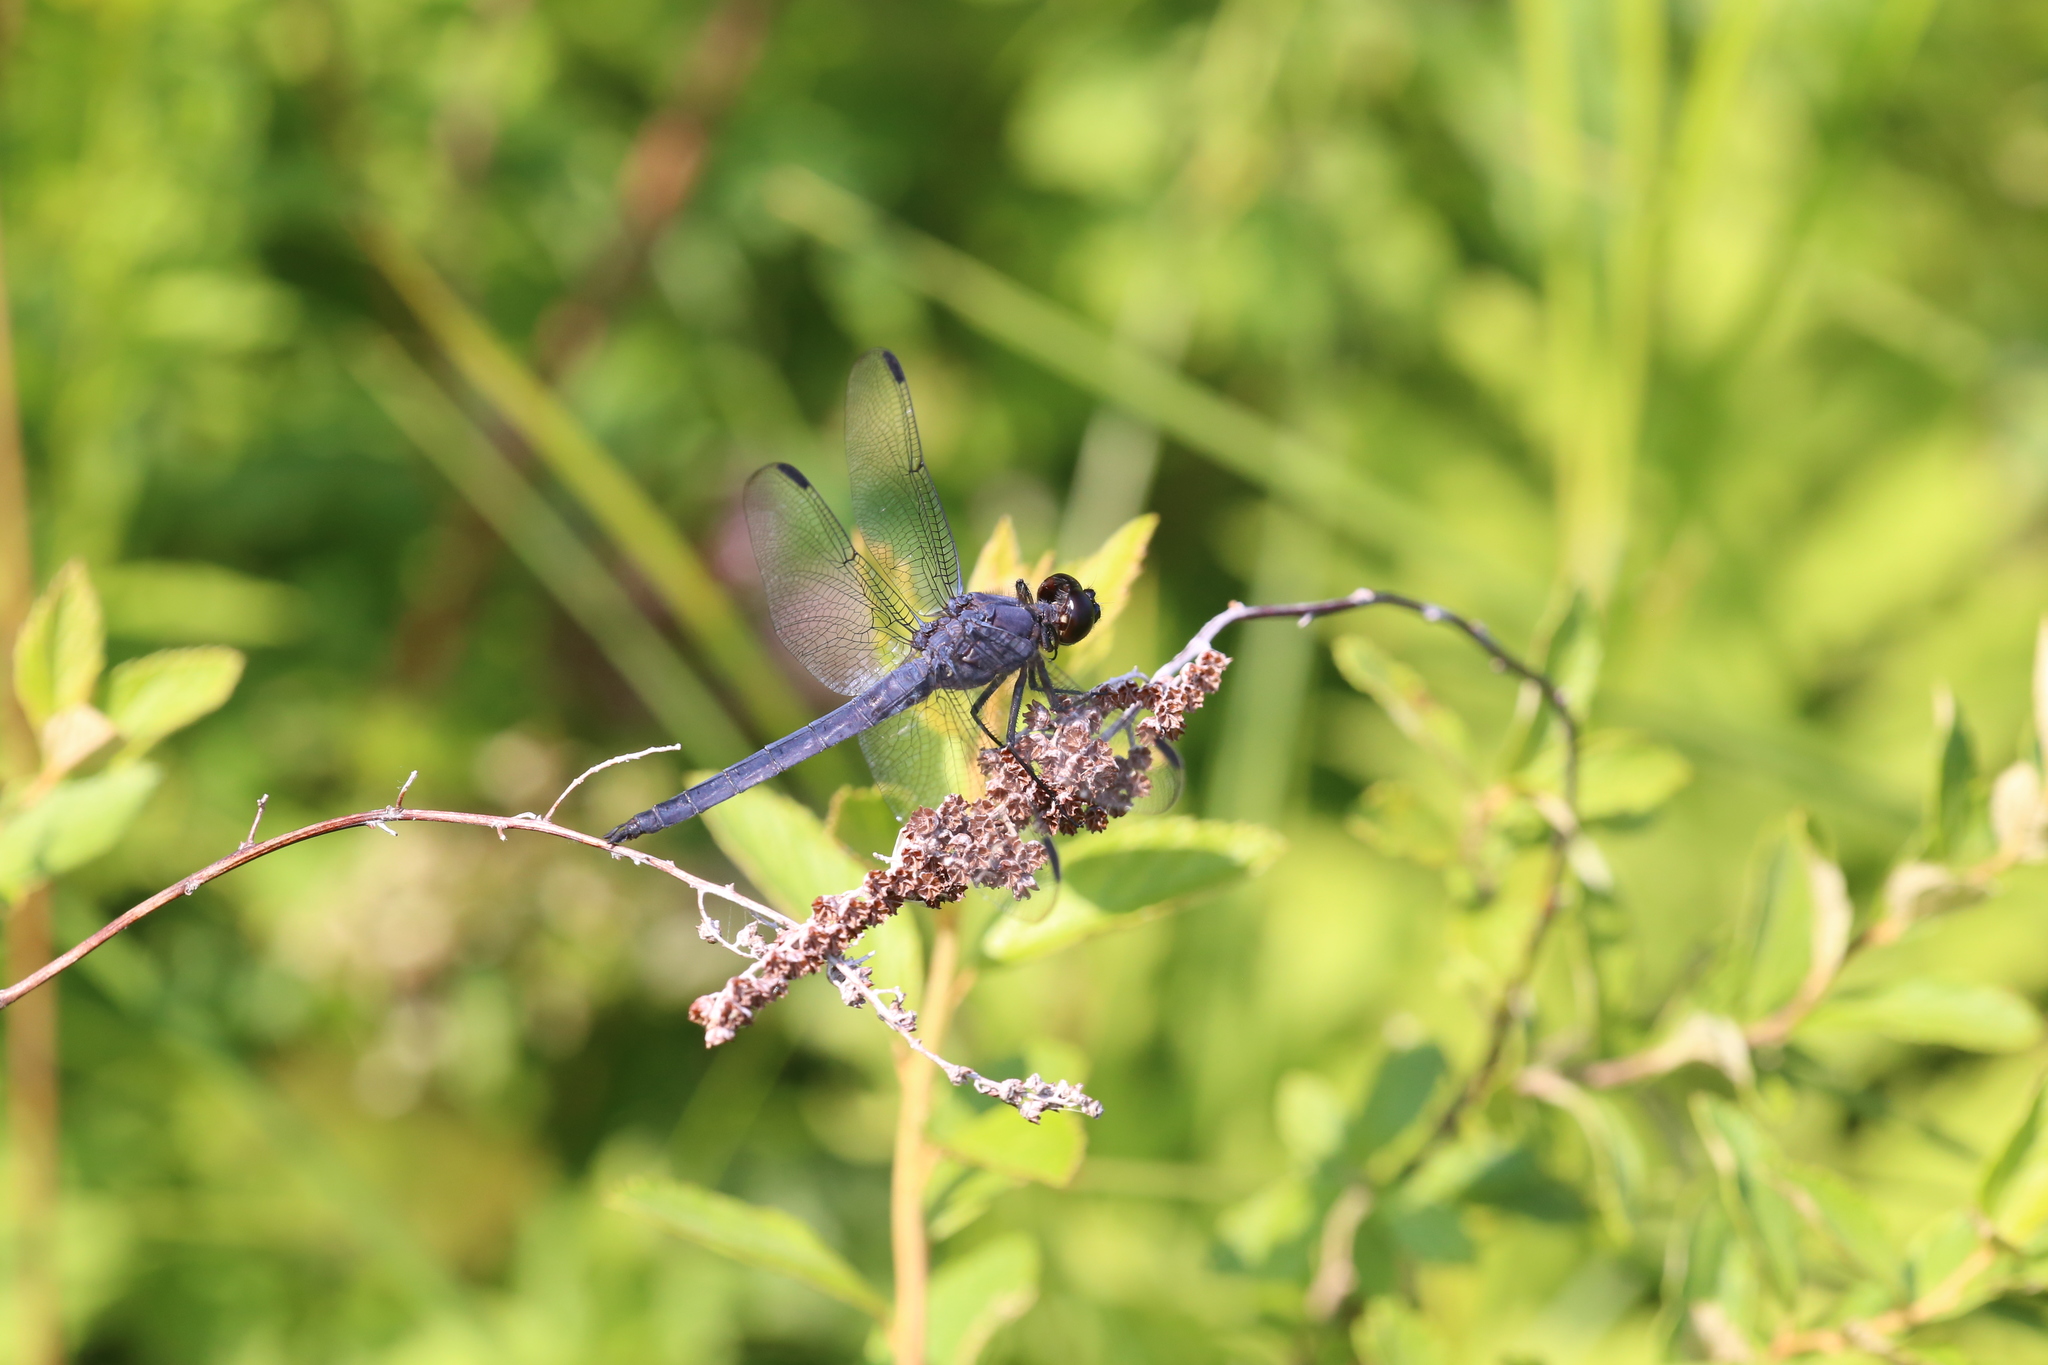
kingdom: Animalia
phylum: Arthropoda
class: Insecta
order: Odonata
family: Libellulidae
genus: Libellula
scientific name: Libellula incesta
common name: Slaty skimmer
